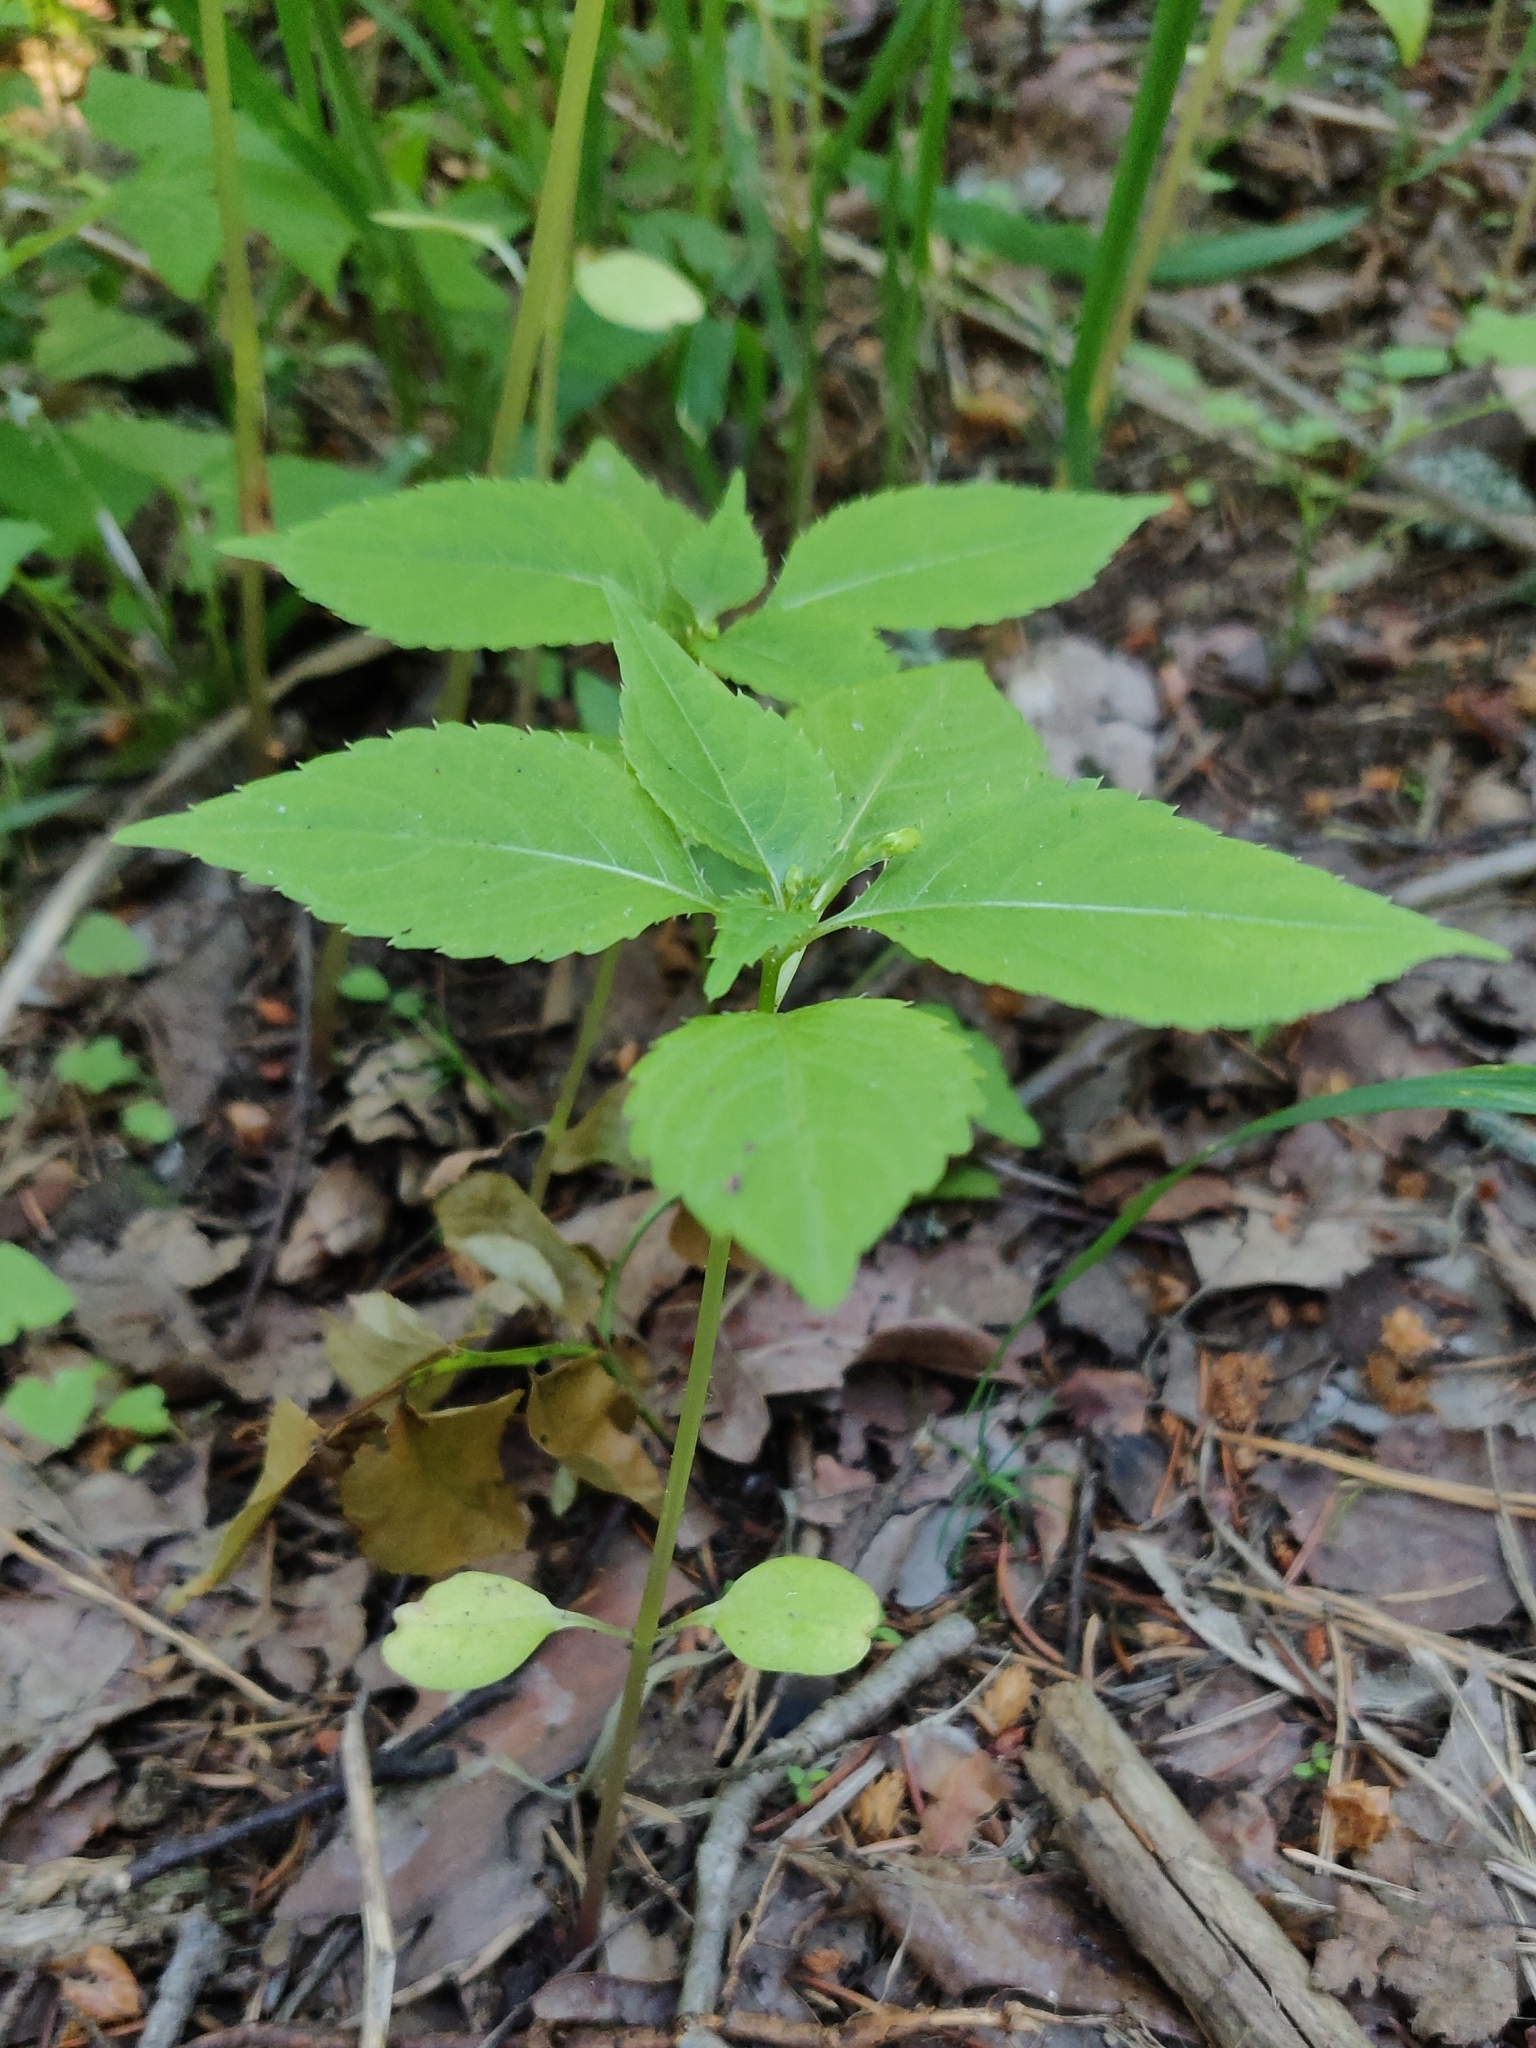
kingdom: Plantae
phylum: Tracheophyta
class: Magnoliopsida
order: Ericales
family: Balsaminaceae
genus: Impatiens
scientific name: Impatiens parviflora
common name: Small balsam
